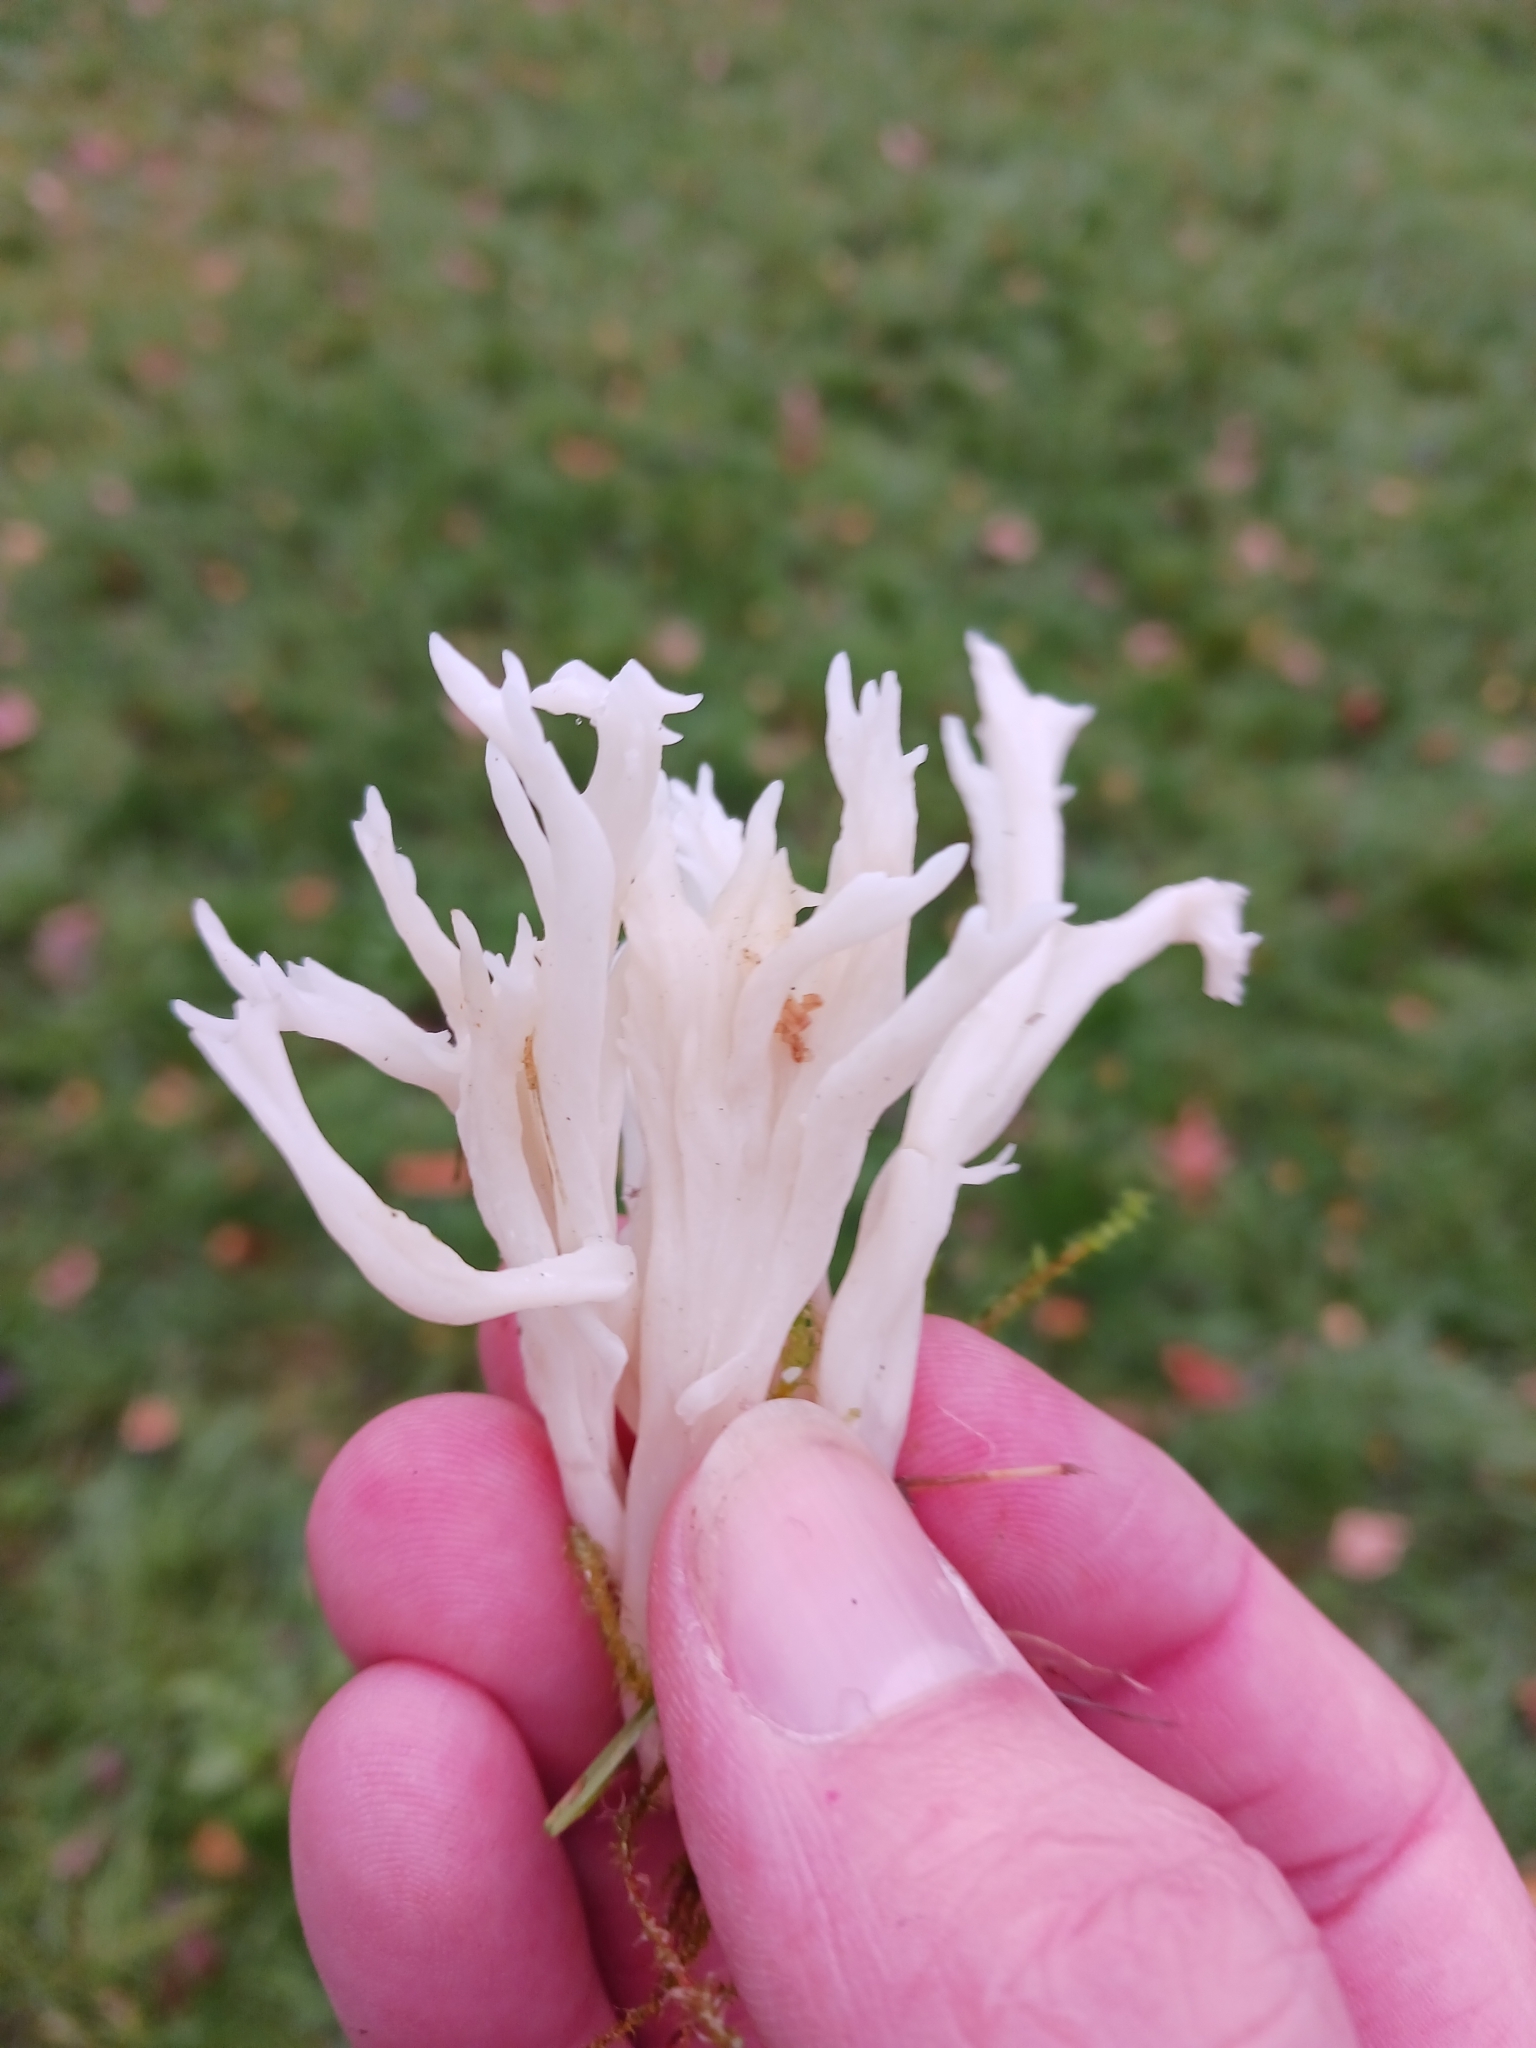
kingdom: Fungi
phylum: Basidiomycota
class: Agaricomycetes
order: Cantharellales
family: Hydnaceae
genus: Clavulina
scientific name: Clavulina coralloides
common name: Crested coral
